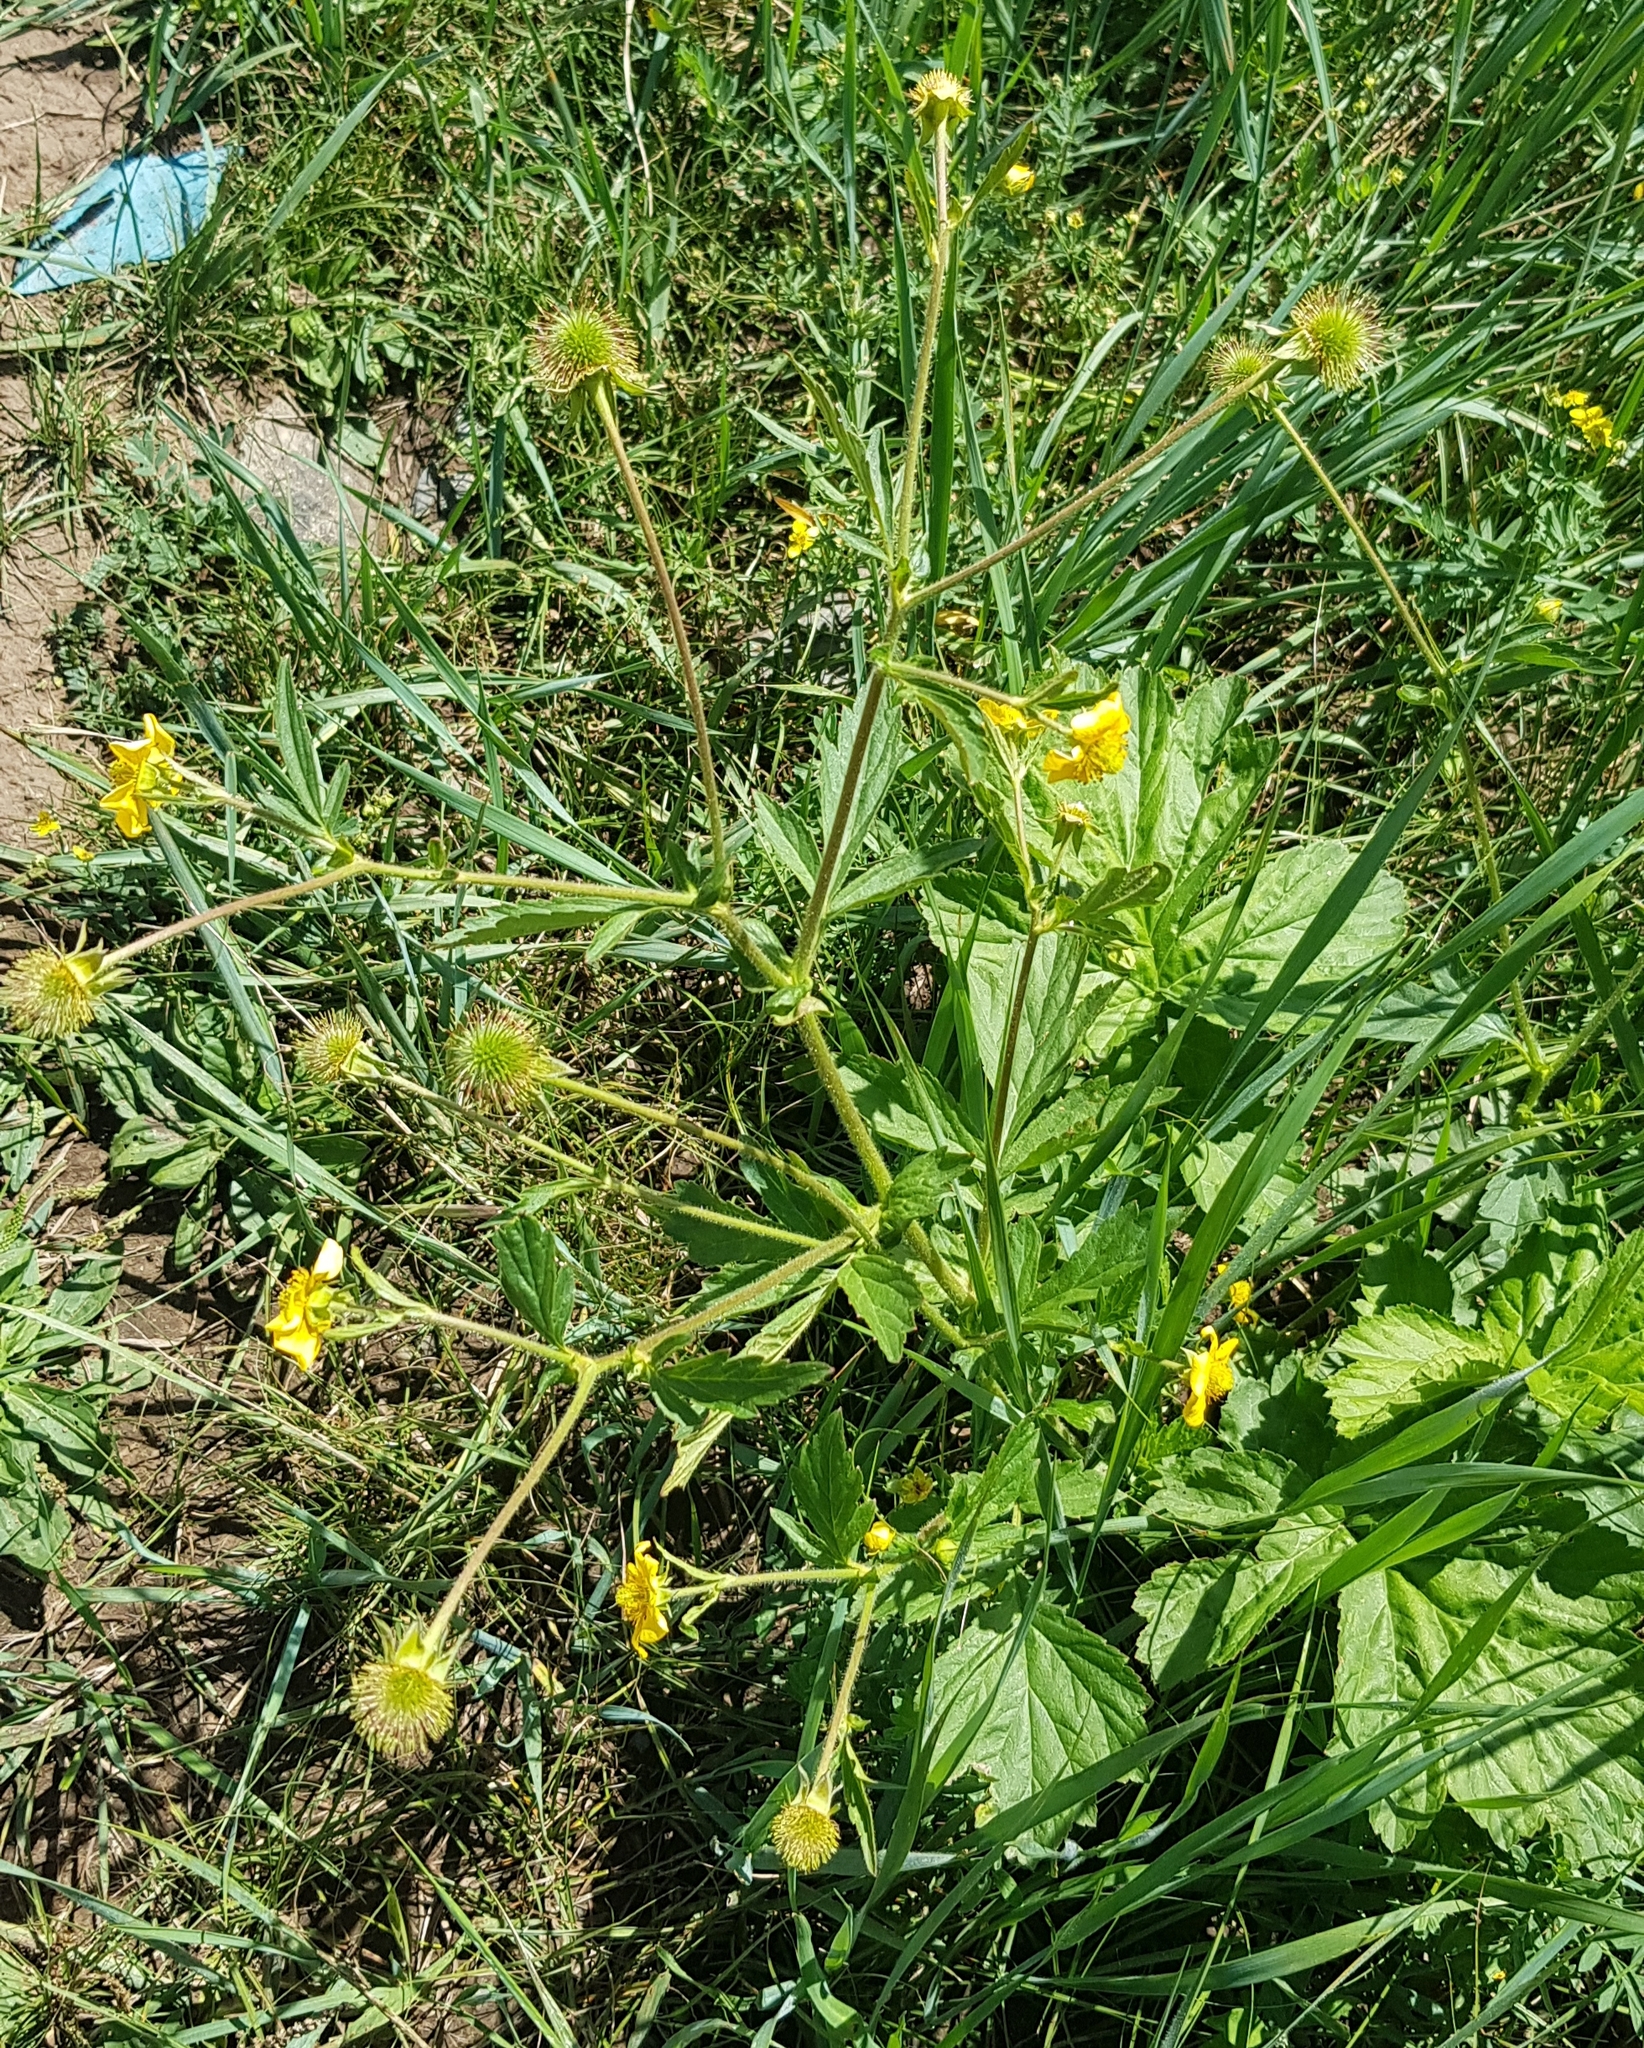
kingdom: Plantae
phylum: Tracheophyta
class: Magnoliopsida
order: Rosales
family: Rosaceae
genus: Geum
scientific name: Geum aleppicum
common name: Yellow avens
